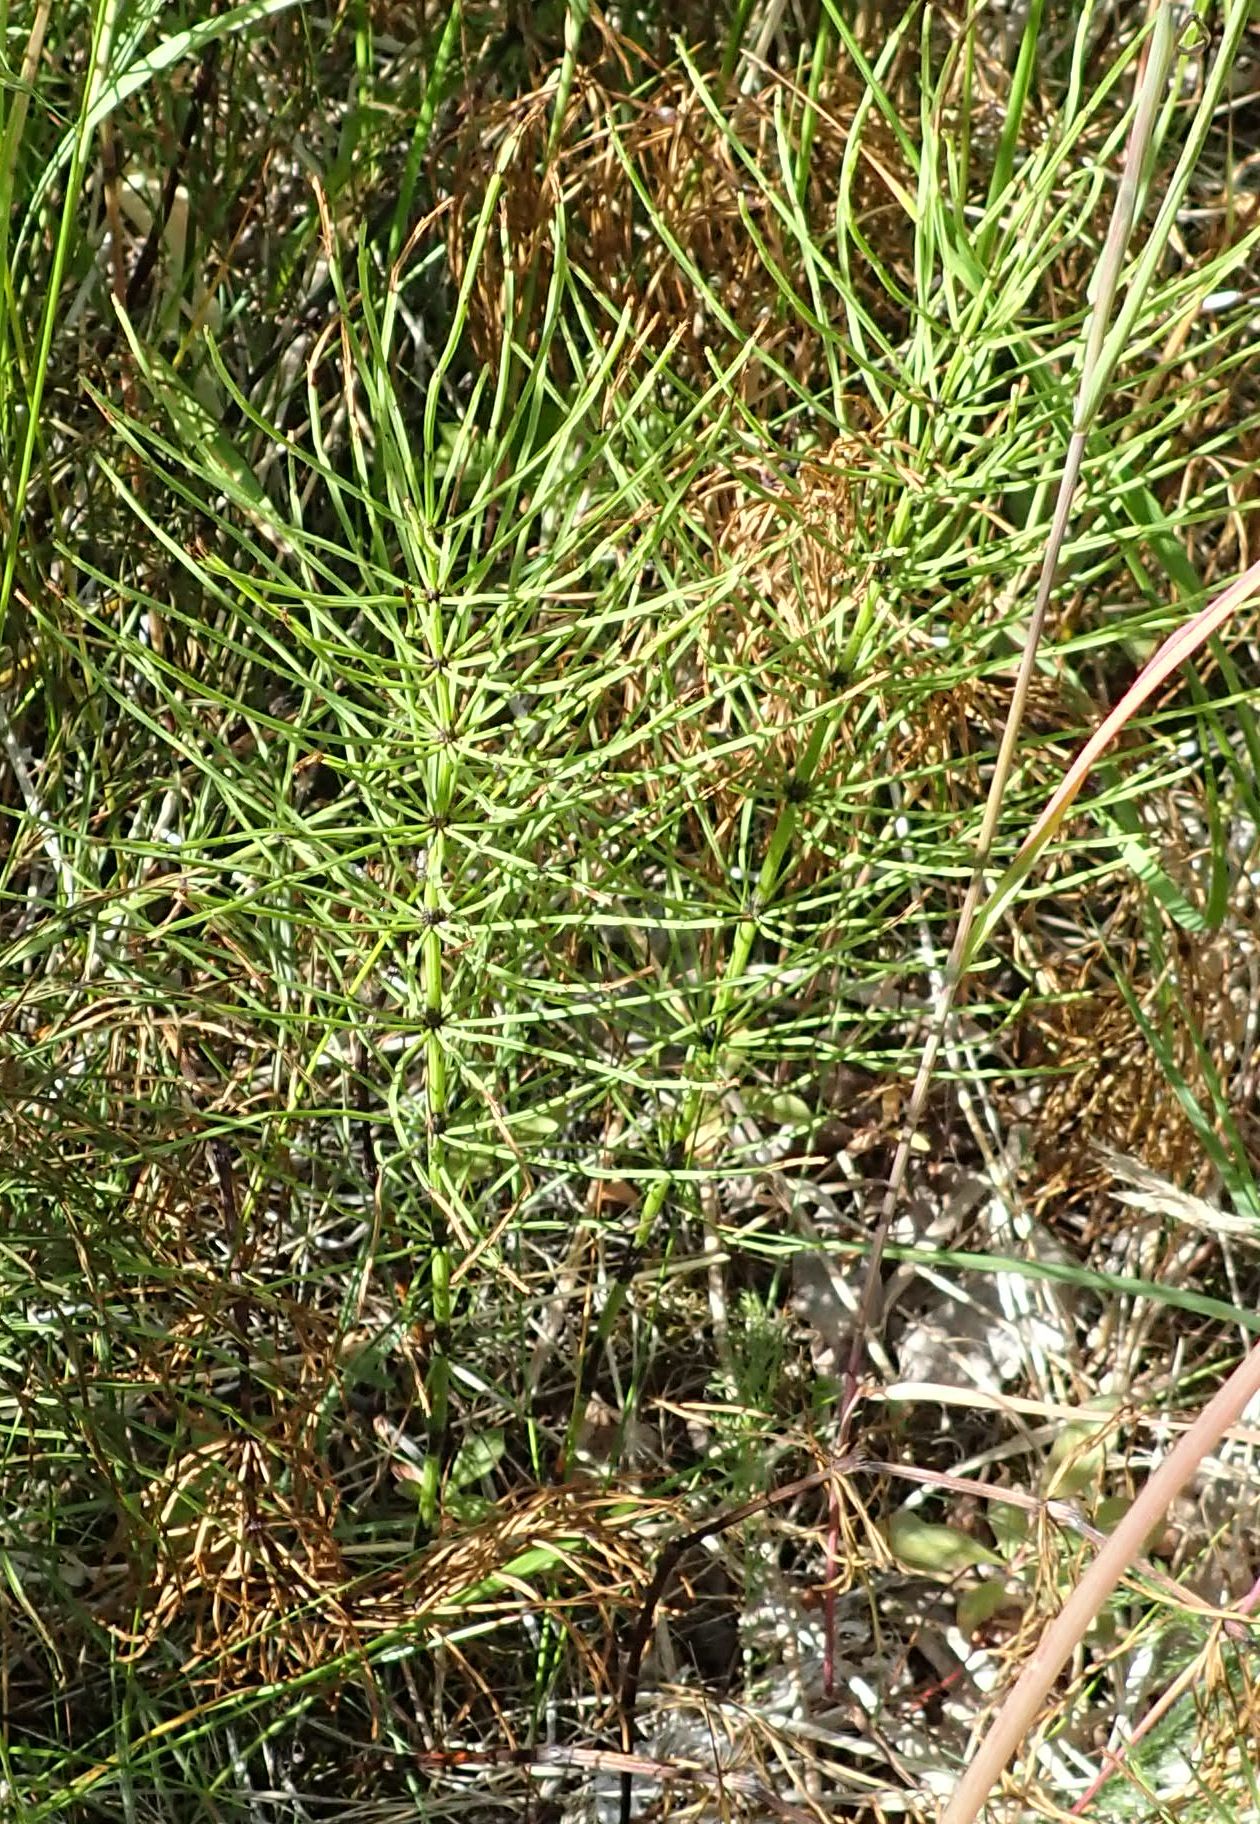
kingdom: Plantae
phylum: Tracheophyta
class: Polypodiopsida
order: Equisetales
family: Equisetaceae
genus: Equisetum
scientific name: Equisetum arvense
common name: Field horsetail
